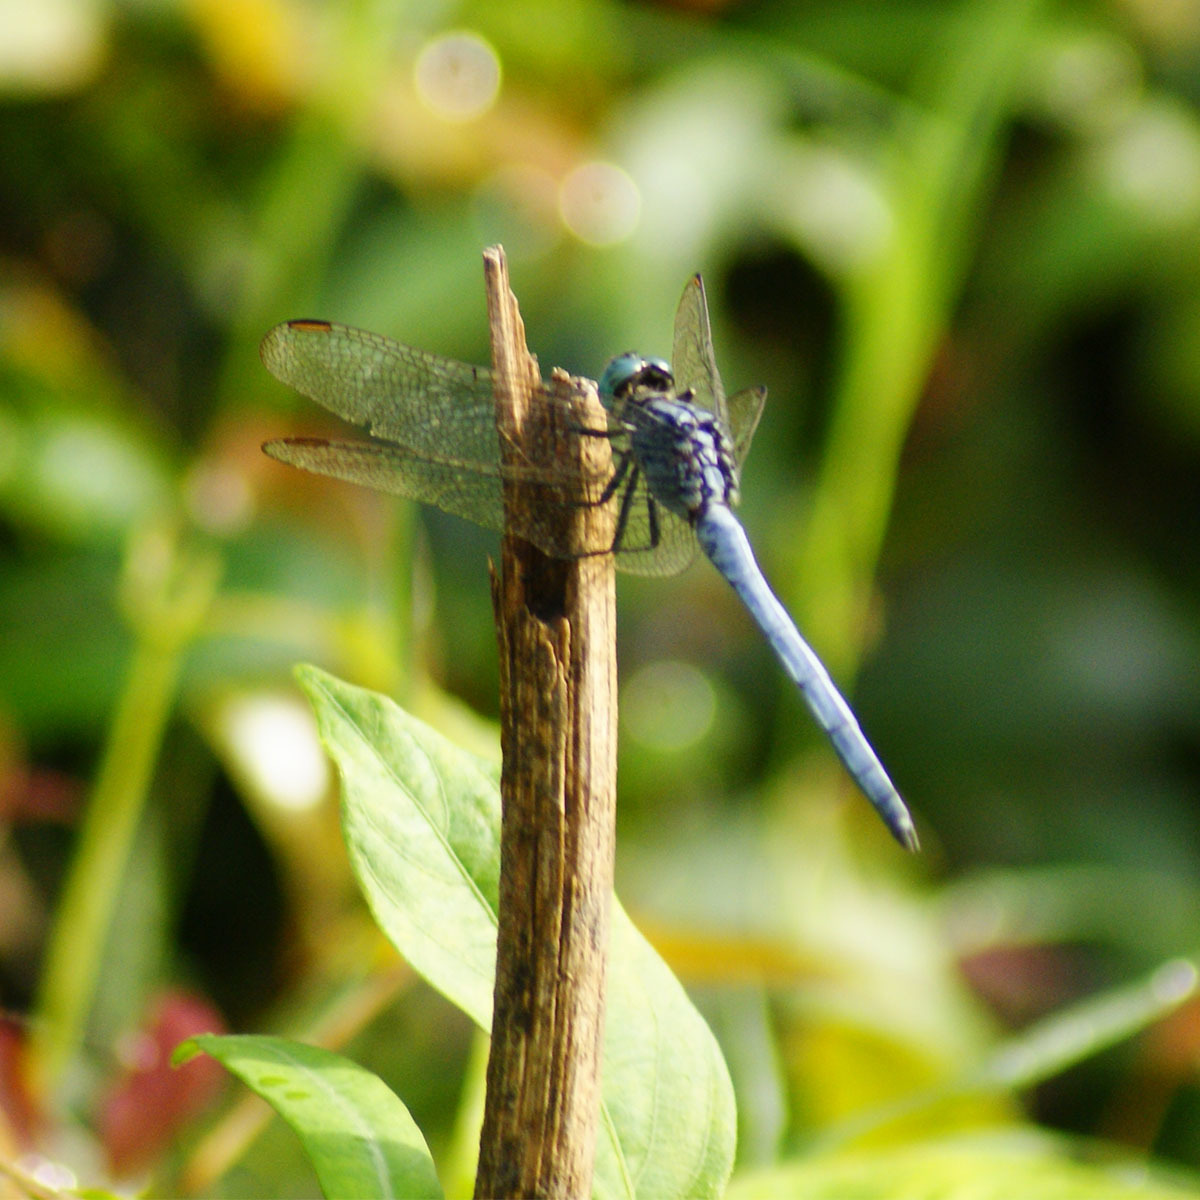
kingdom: Animalia
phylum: Arthropoda
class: Insecta
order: Odonata
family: Libellulidae
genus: Orthetrum
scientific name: Orthetrum luzonicum
